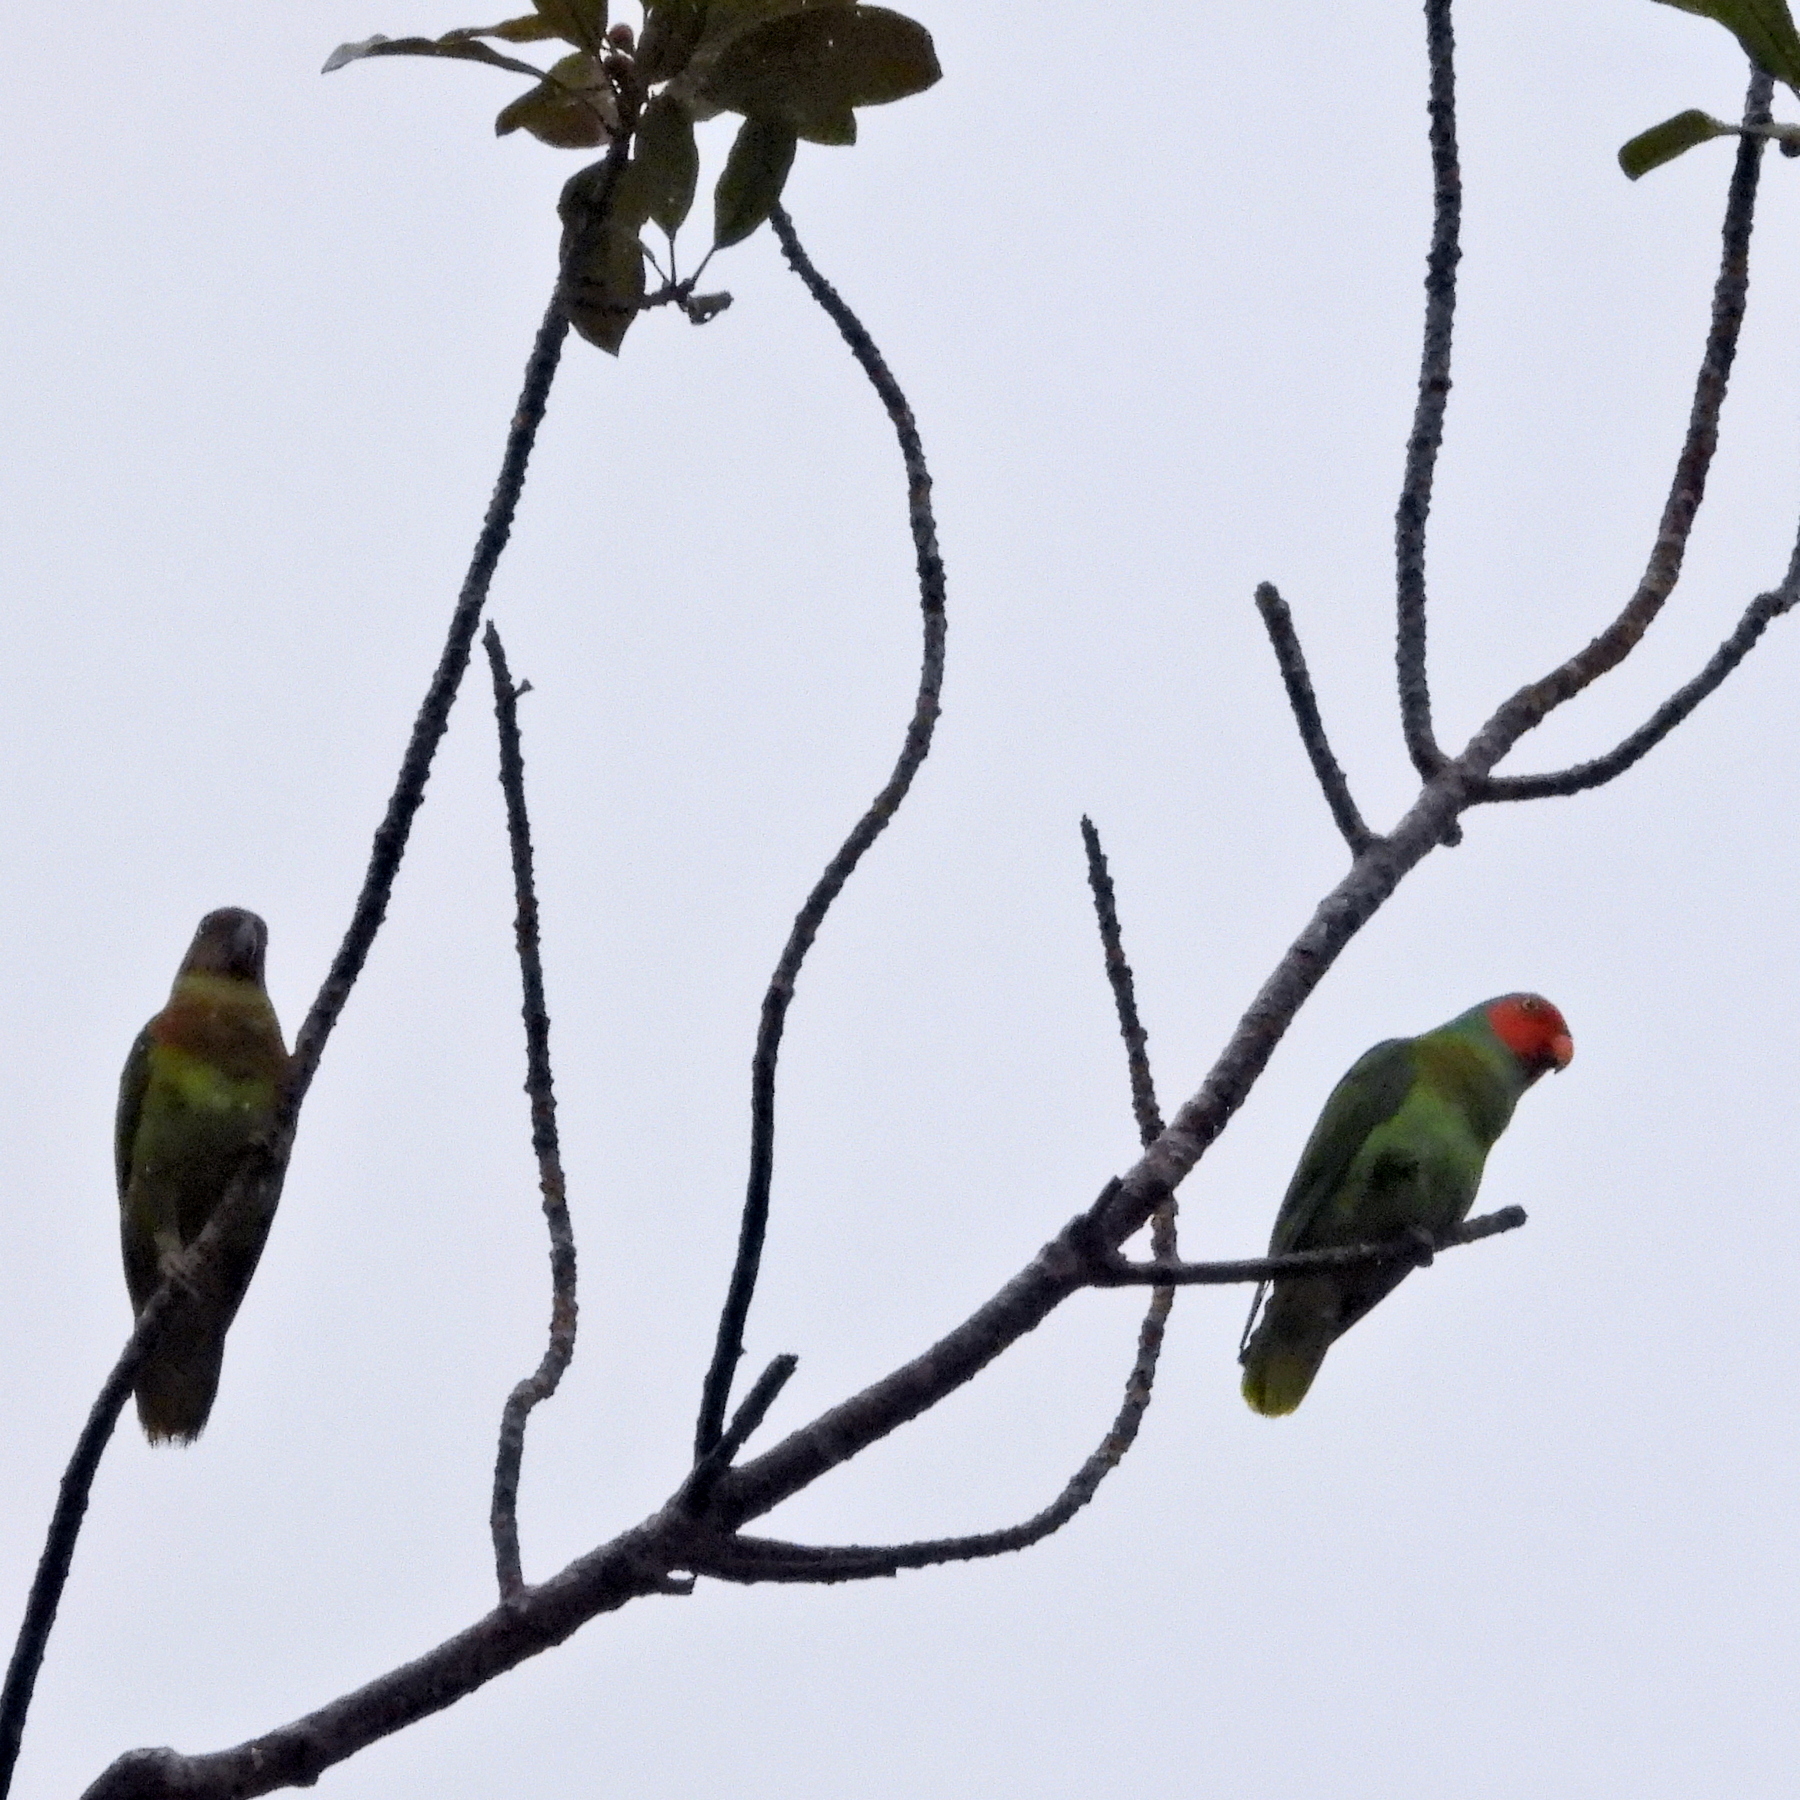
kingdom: Animalia
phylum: Chordata
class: Aves
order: Psittaciformes
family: Psittacidae
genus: Geoffroyus
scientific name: Geoffroyus geoffroyi
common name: Red-cheeked parrot
